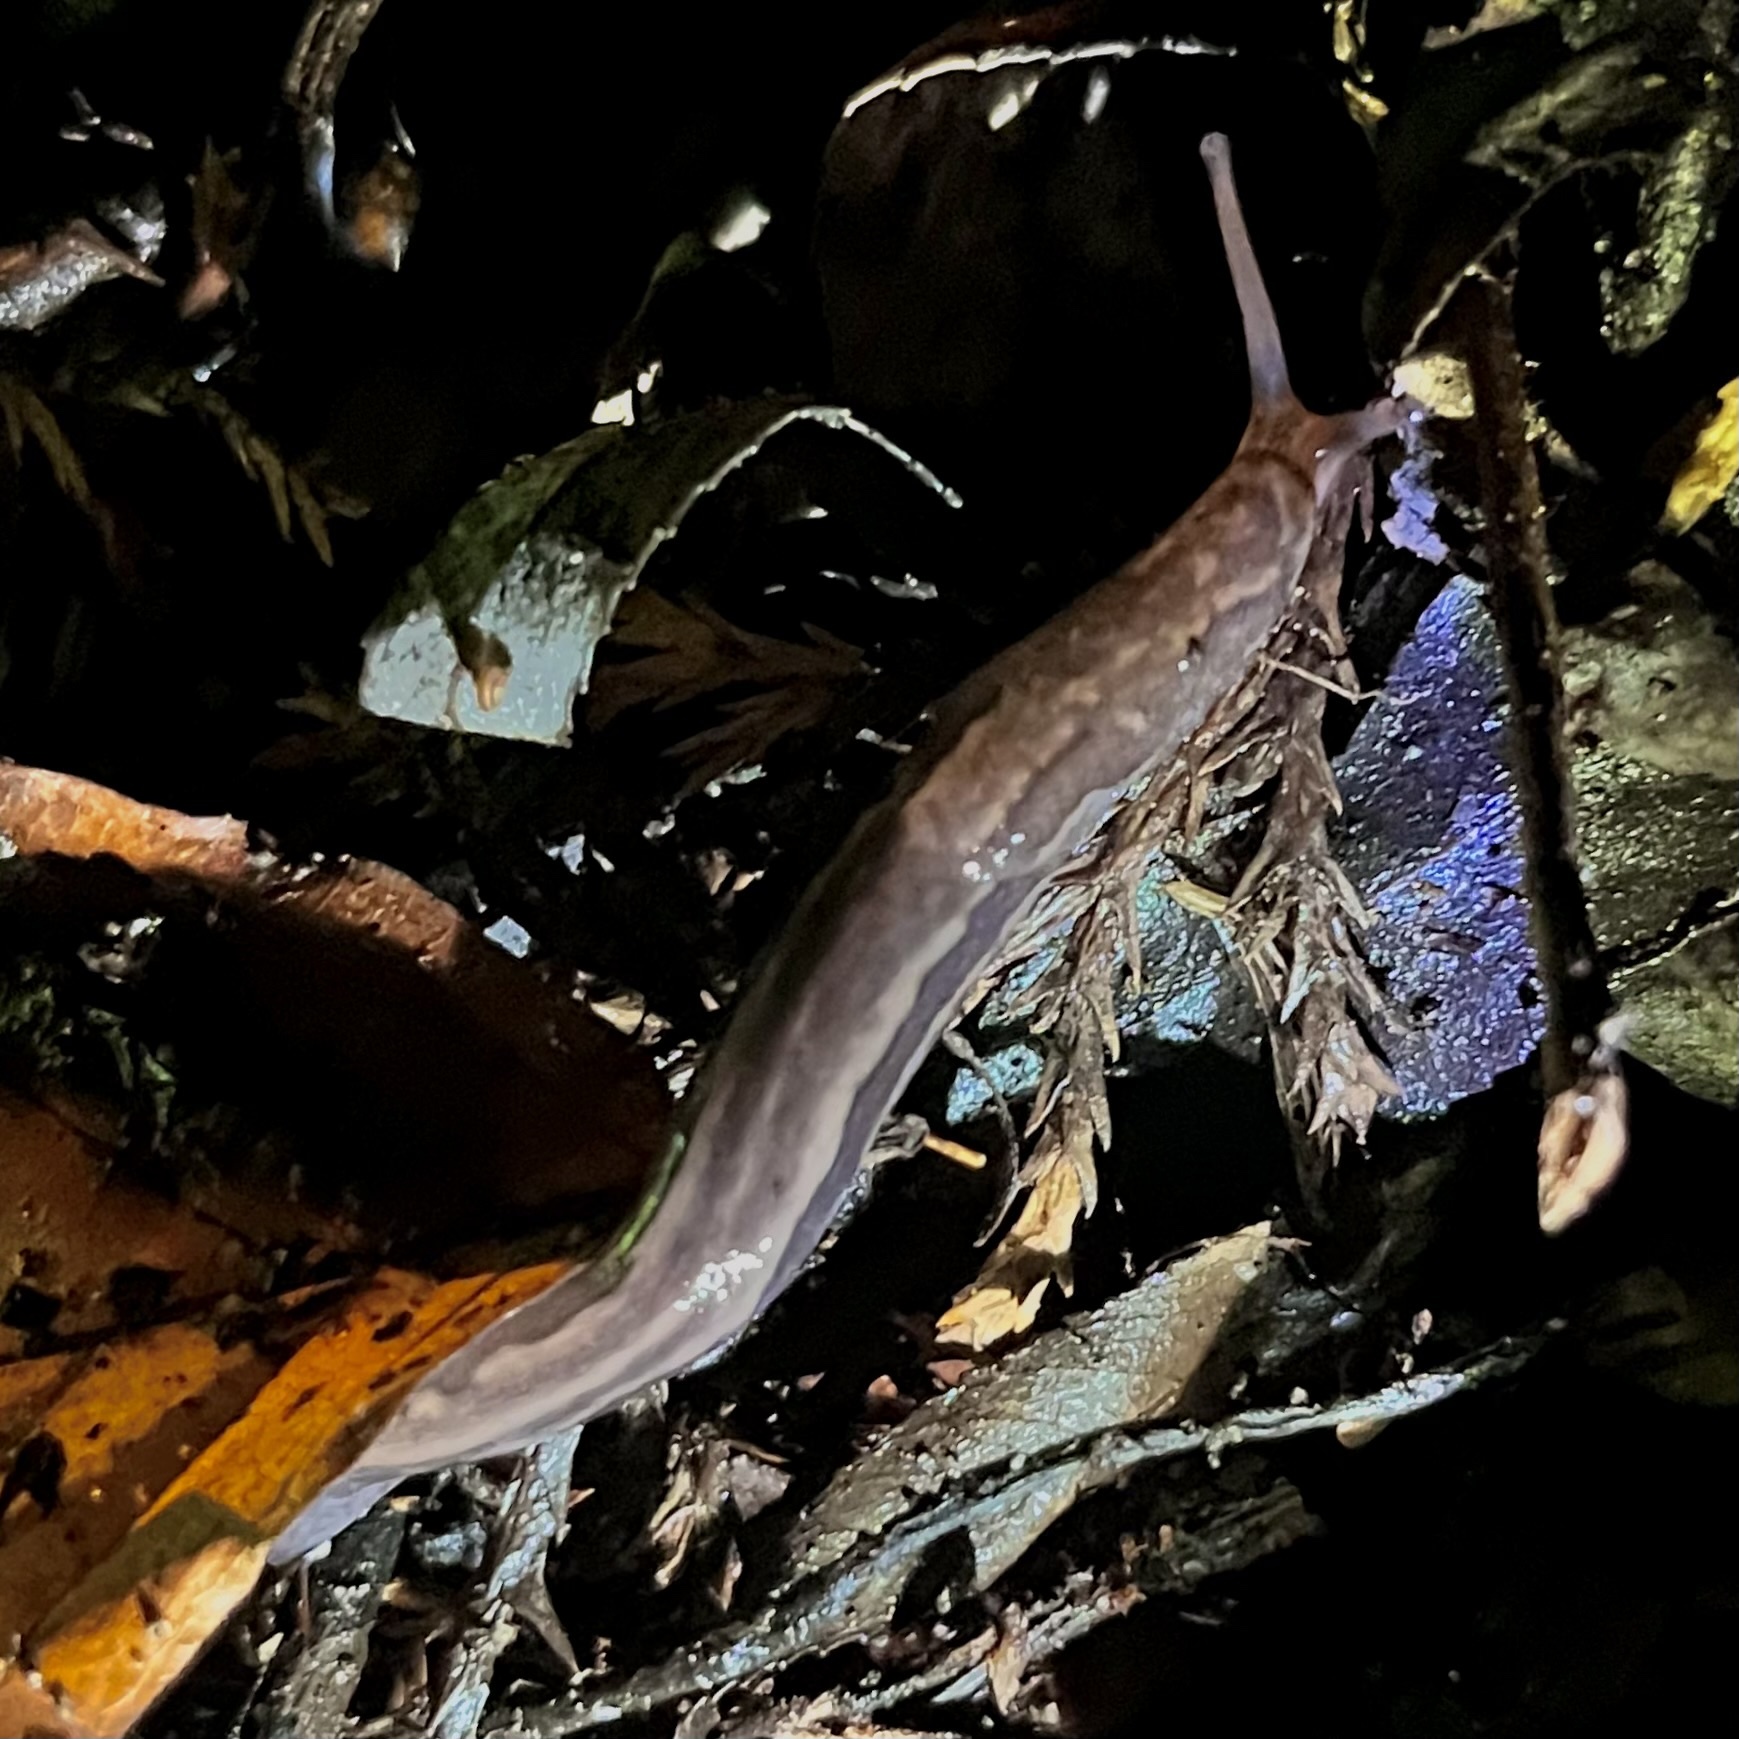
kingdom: Animalia
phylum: Mollusca
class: Gastropoda
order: Stylommatophora
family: Limacidae
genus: Limax
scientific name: Limax maximus
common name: Great grey slug
